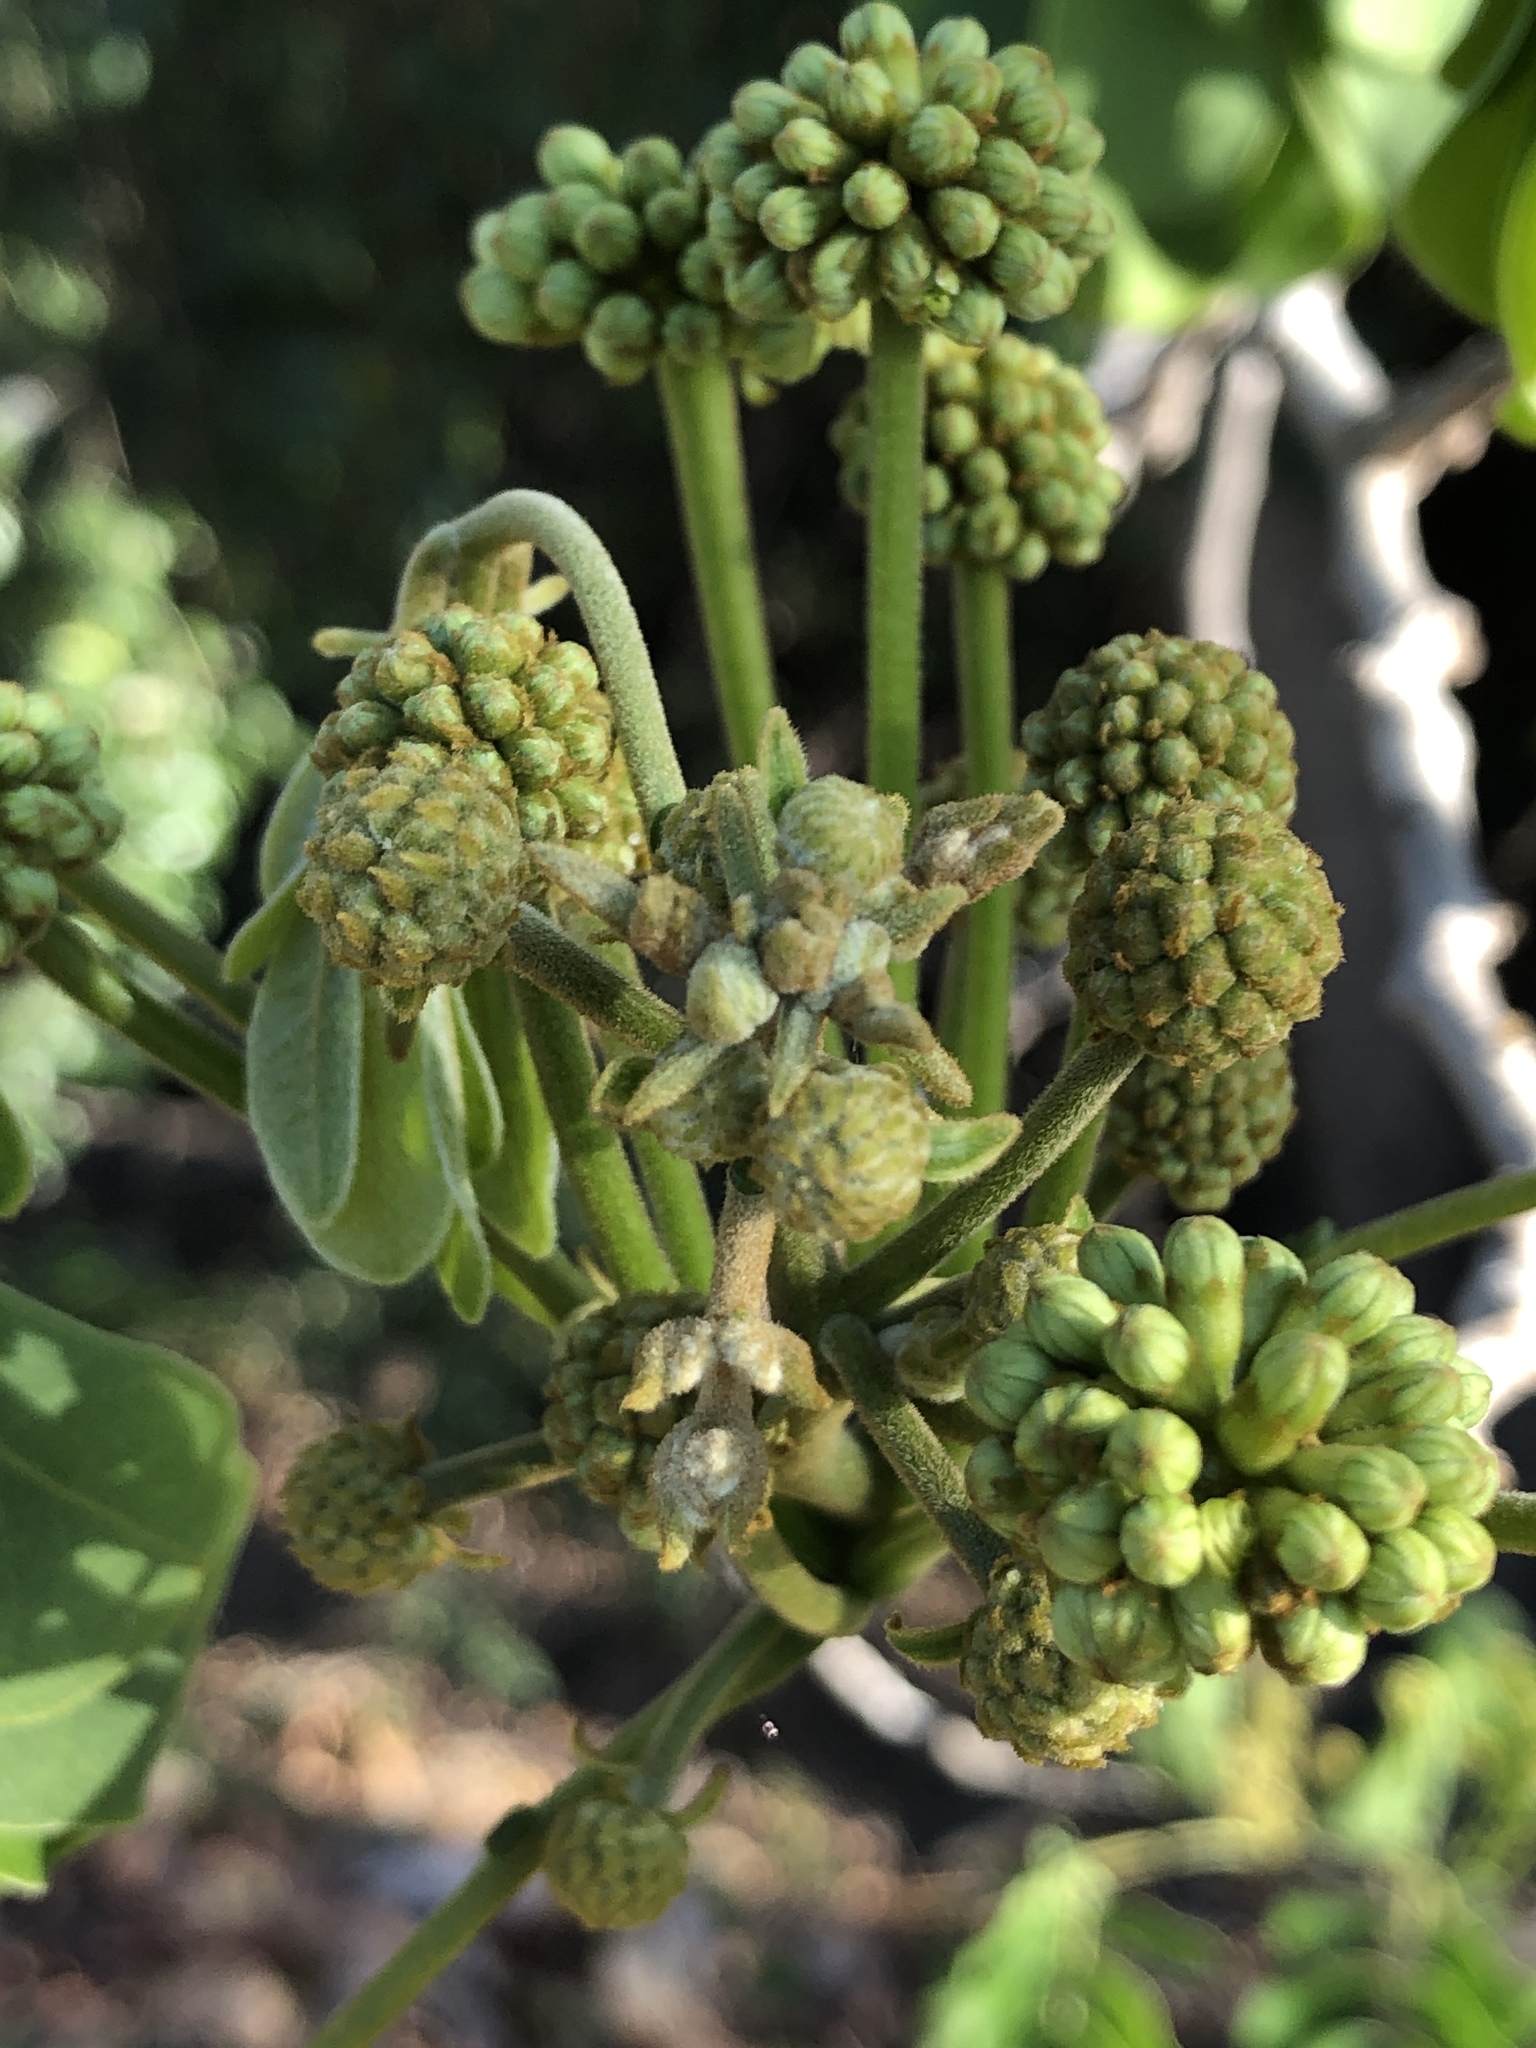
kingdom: Plantae
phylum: Tracheophyta
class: Magnoliopsida
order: Fabales
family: Fabaceae
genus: Albizia
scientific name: Albizia lebbeck
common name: Woman's tongue
